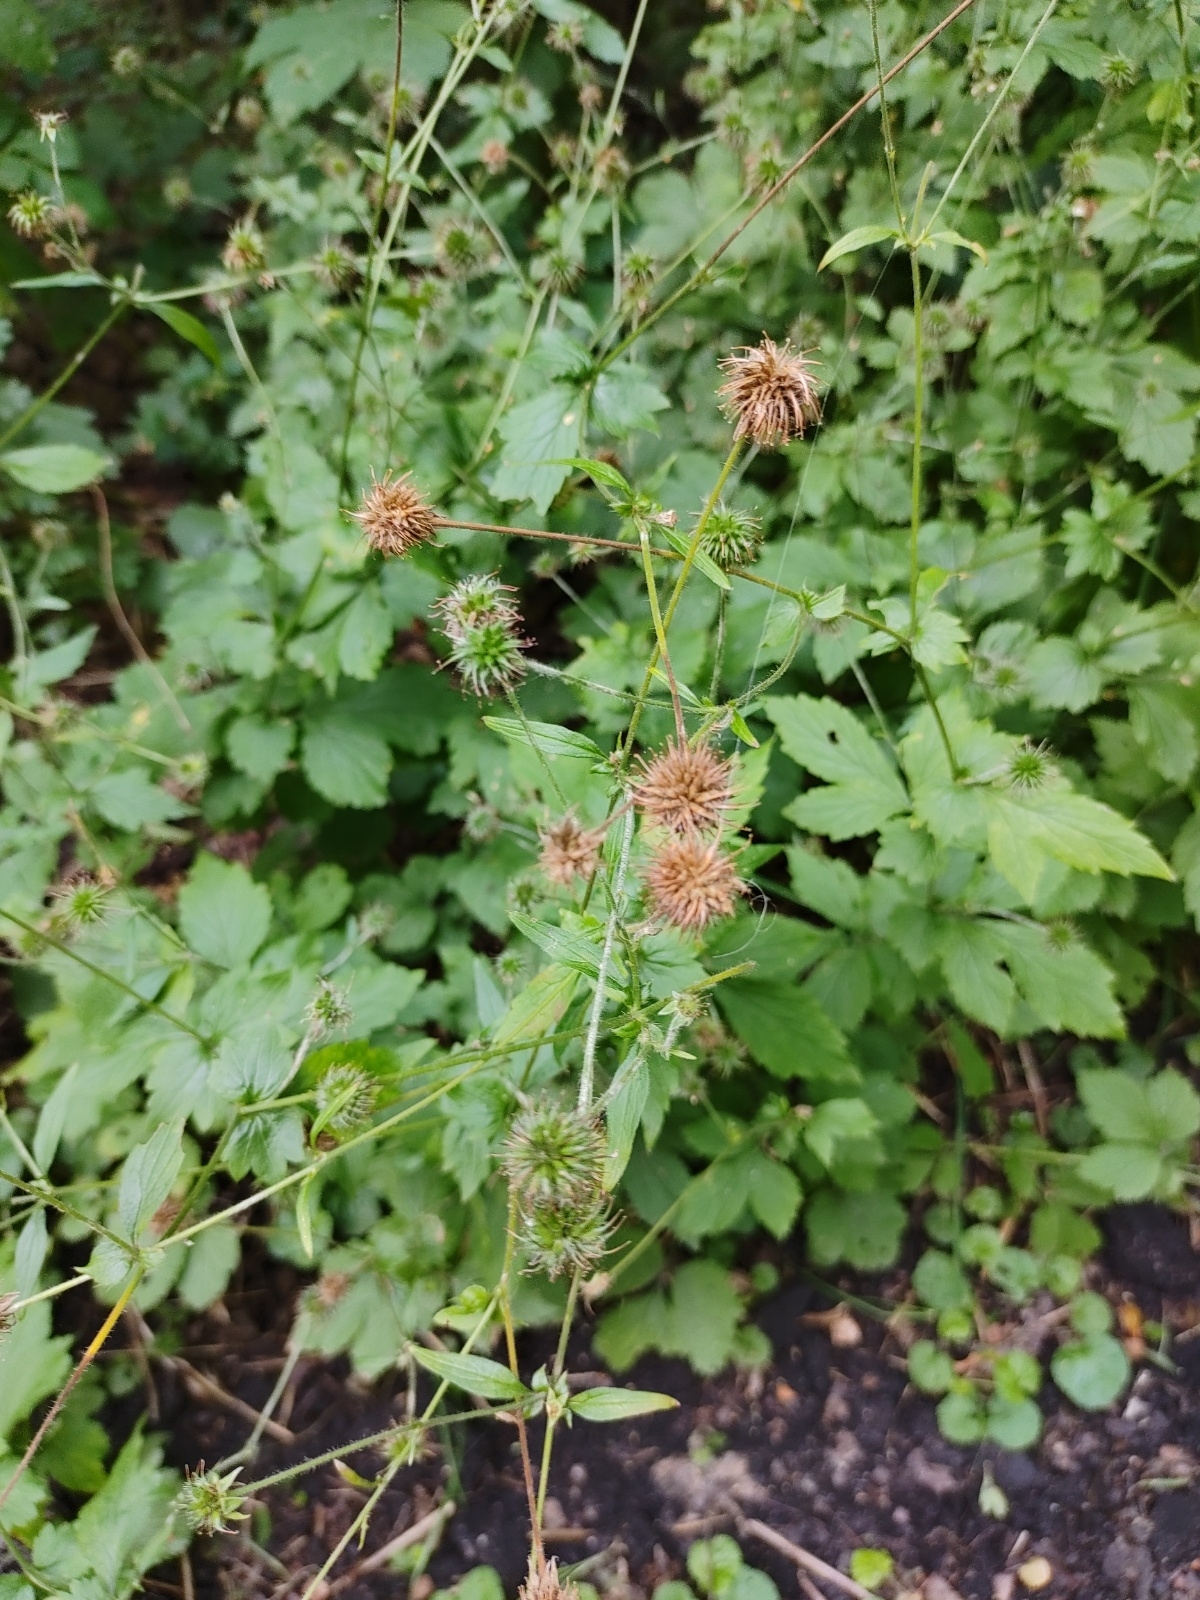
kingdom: Plantae
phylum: Tracheophyta
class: Magnoliopsida
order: Rosales
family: Rosaceae
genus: Geum
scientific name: Geum urbanum
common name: Wood avens
